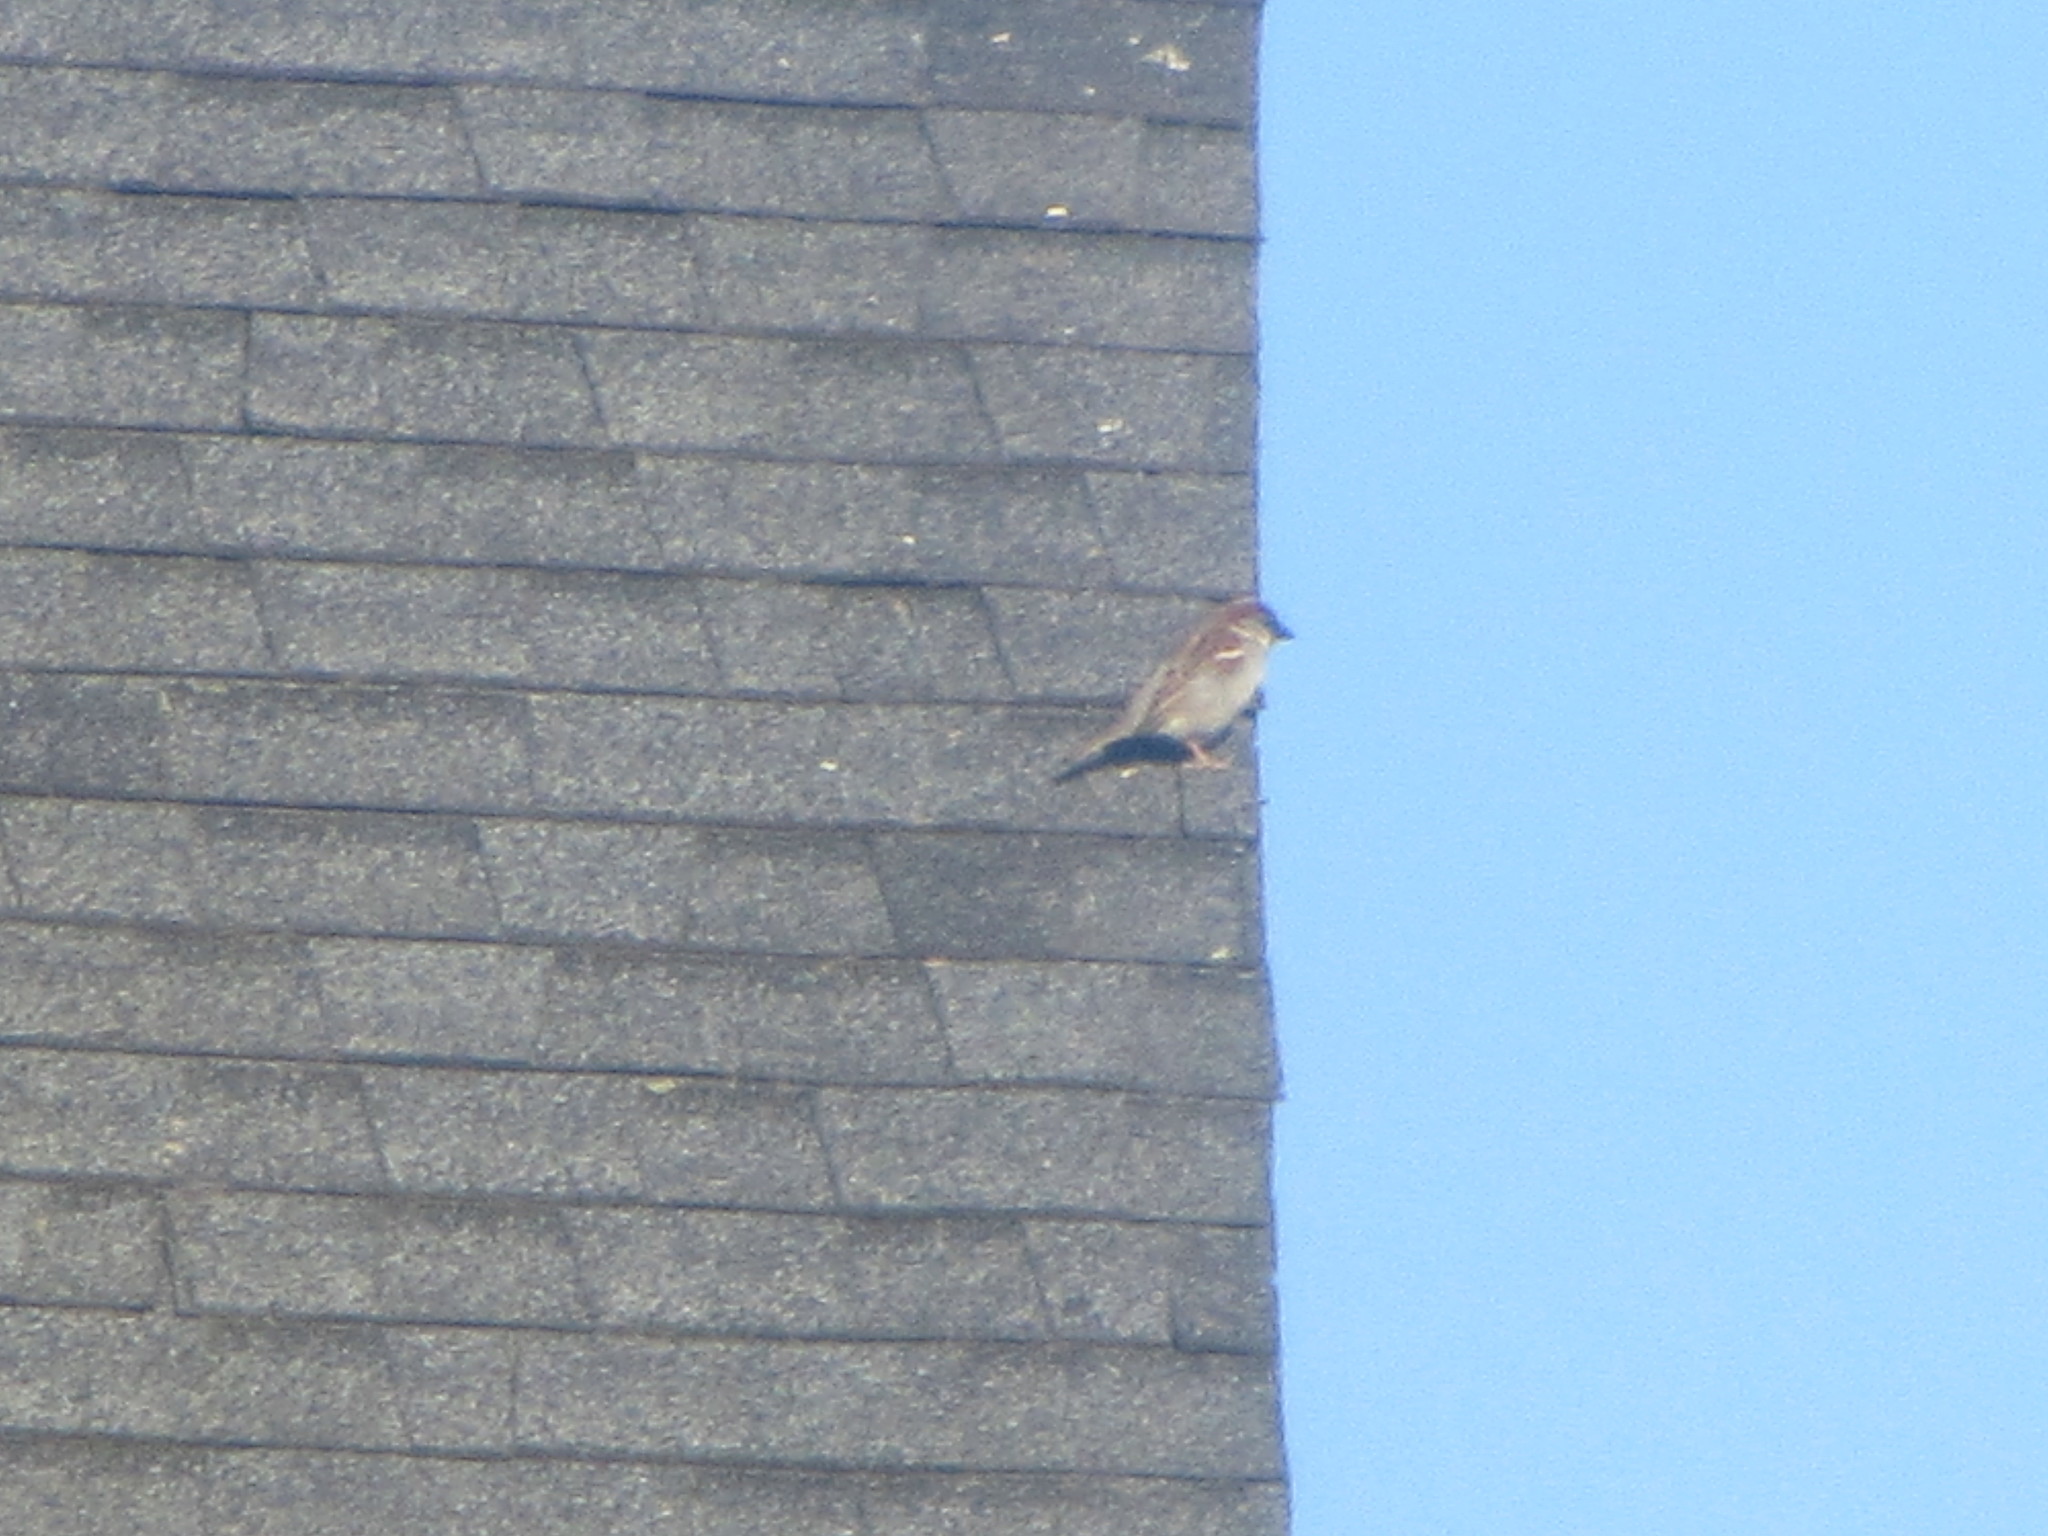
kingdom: Animalia
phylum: Chordata
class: Aves
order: Passeriformes
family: Passeridae
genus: Passer
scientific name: Passer domesticus
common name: House sparrow
